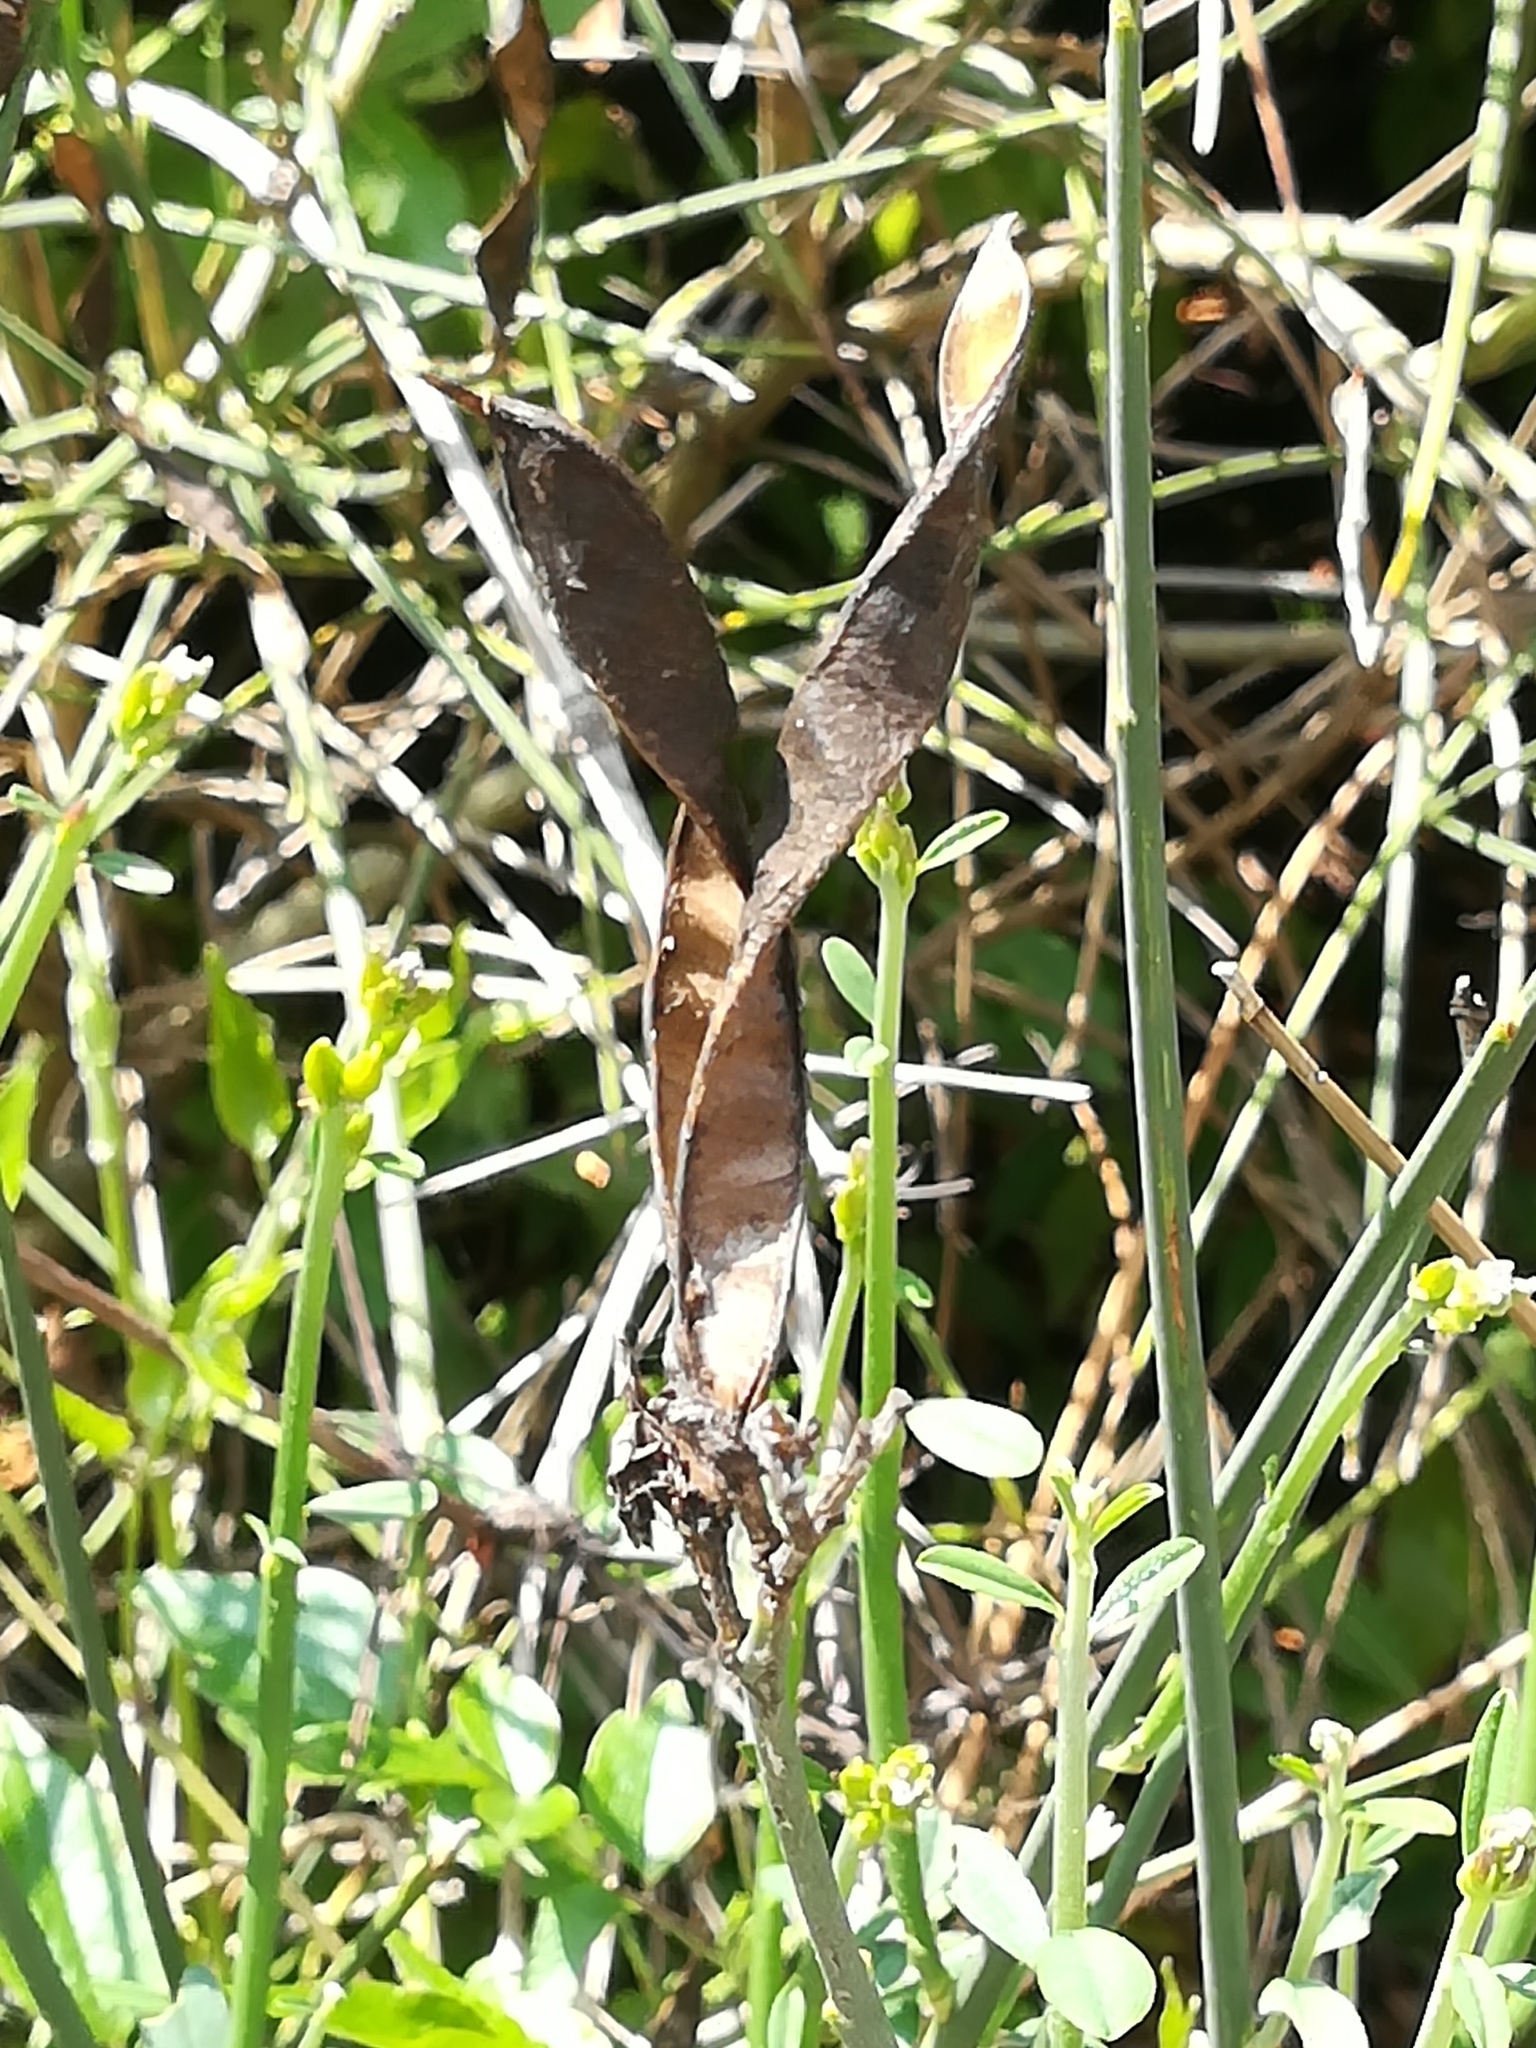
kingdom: Plantae
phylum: Tracheophyta
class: Magnoliopsida
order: Fabales
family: Fabaceae
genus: Spartium
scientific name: Spartium junceum
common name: Spanish broom
